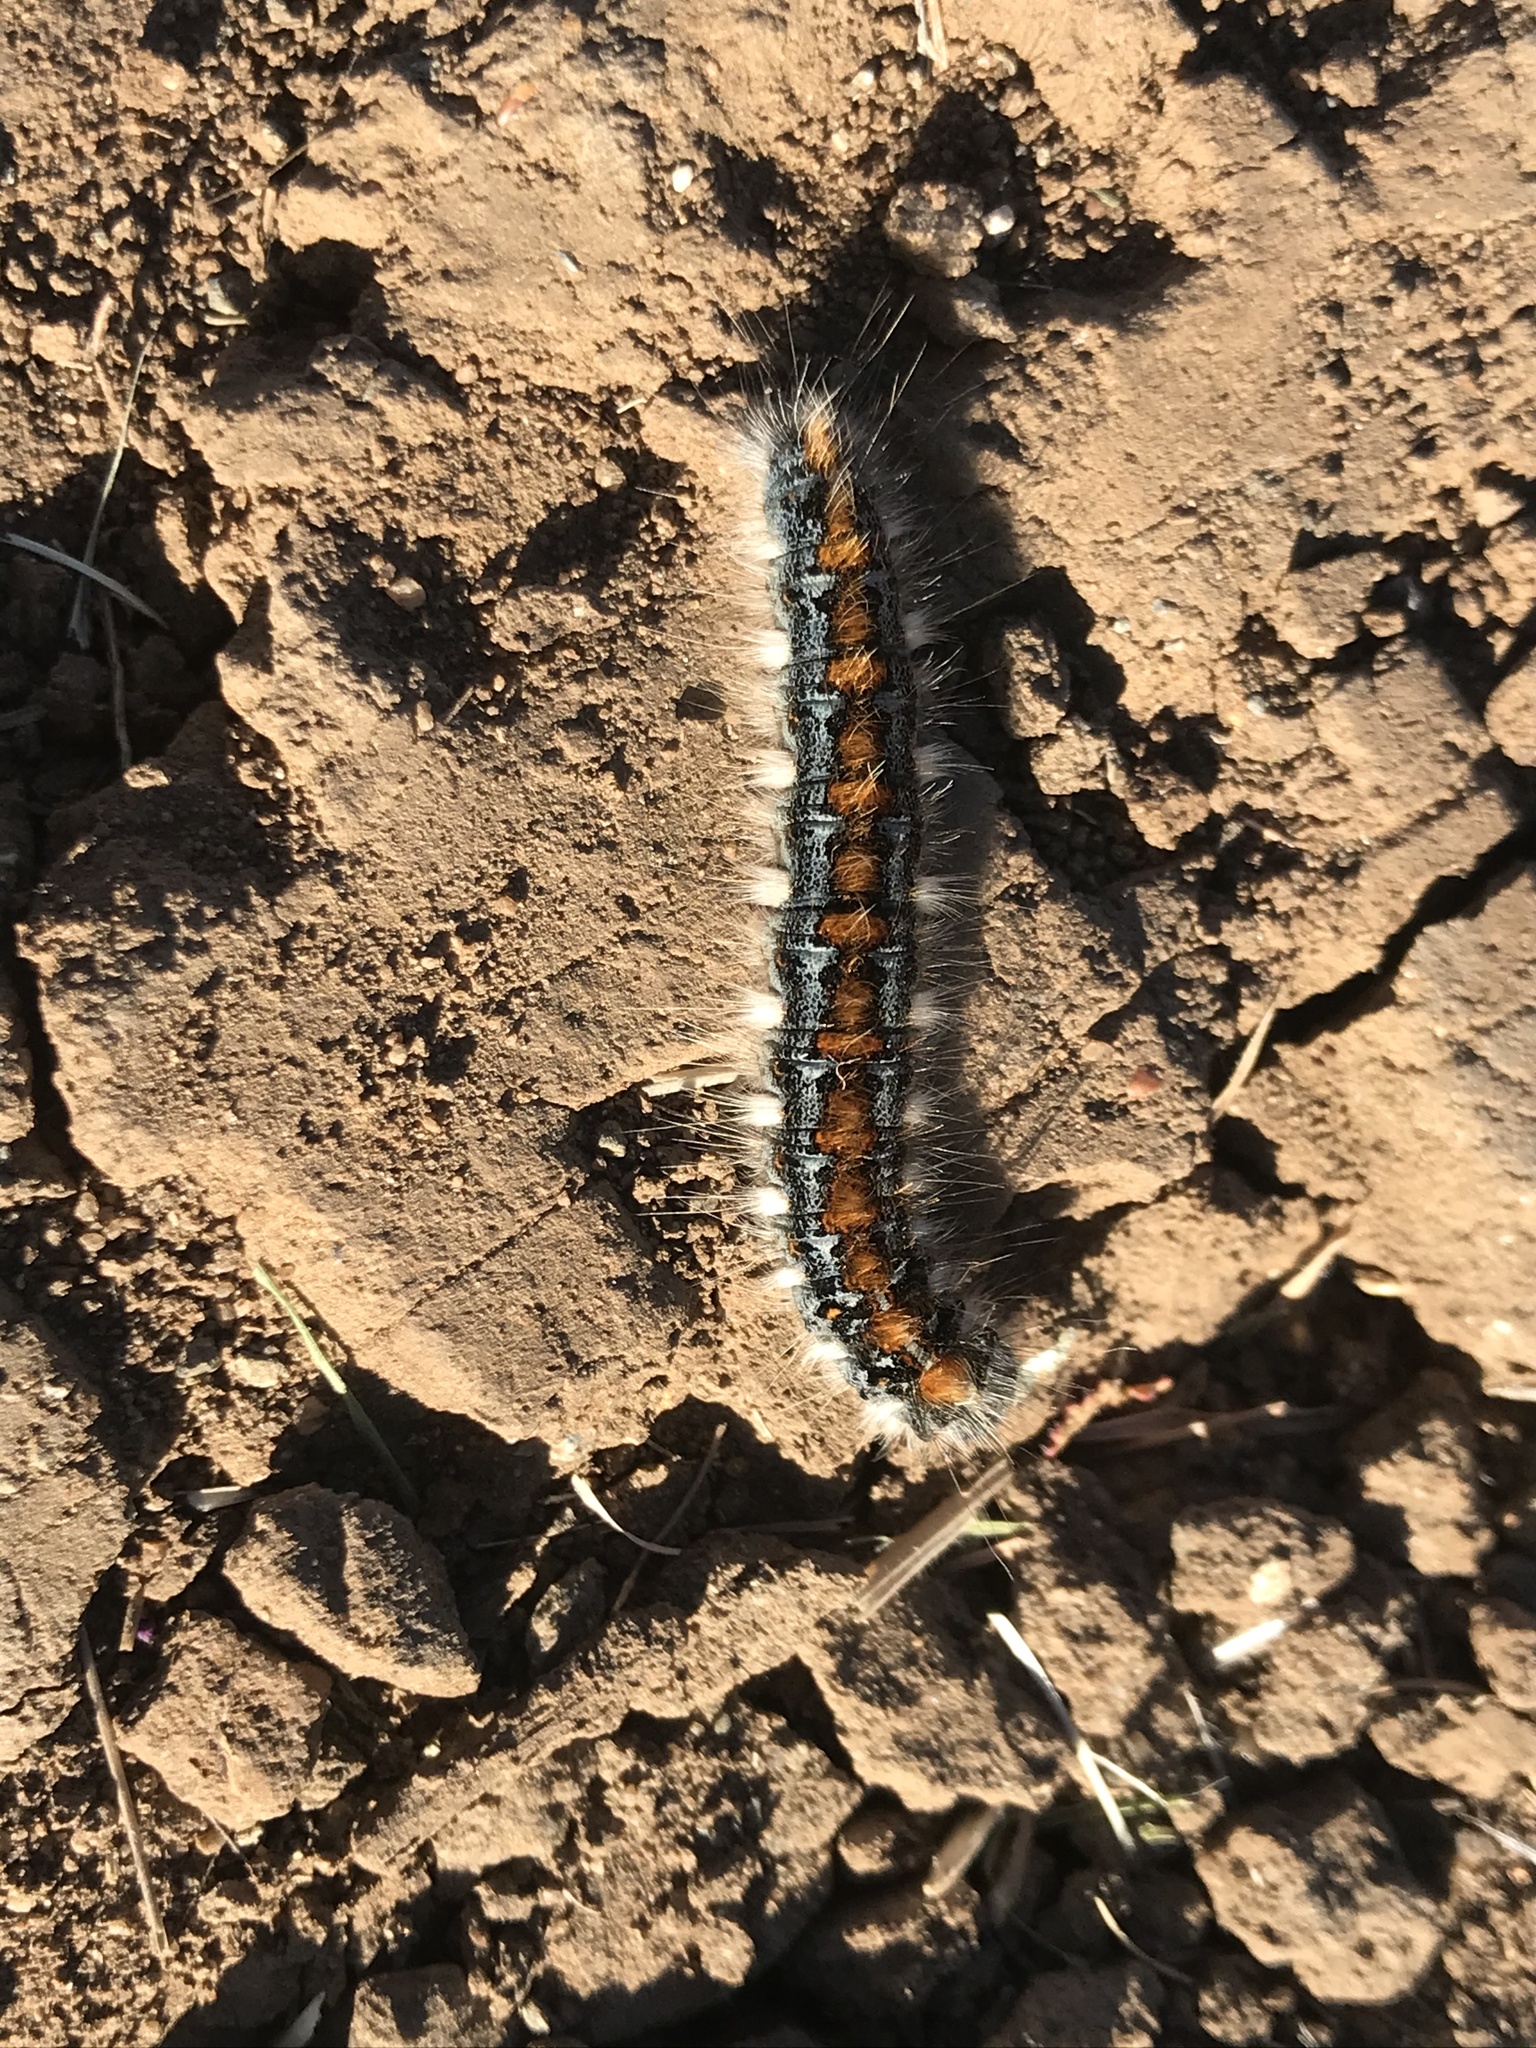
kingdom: Animalia
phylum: Arthropoda
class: Insecta
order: Lepidoptera
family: Lasiocampidae
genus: Malacosoma
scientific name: Malacosoma constricta
